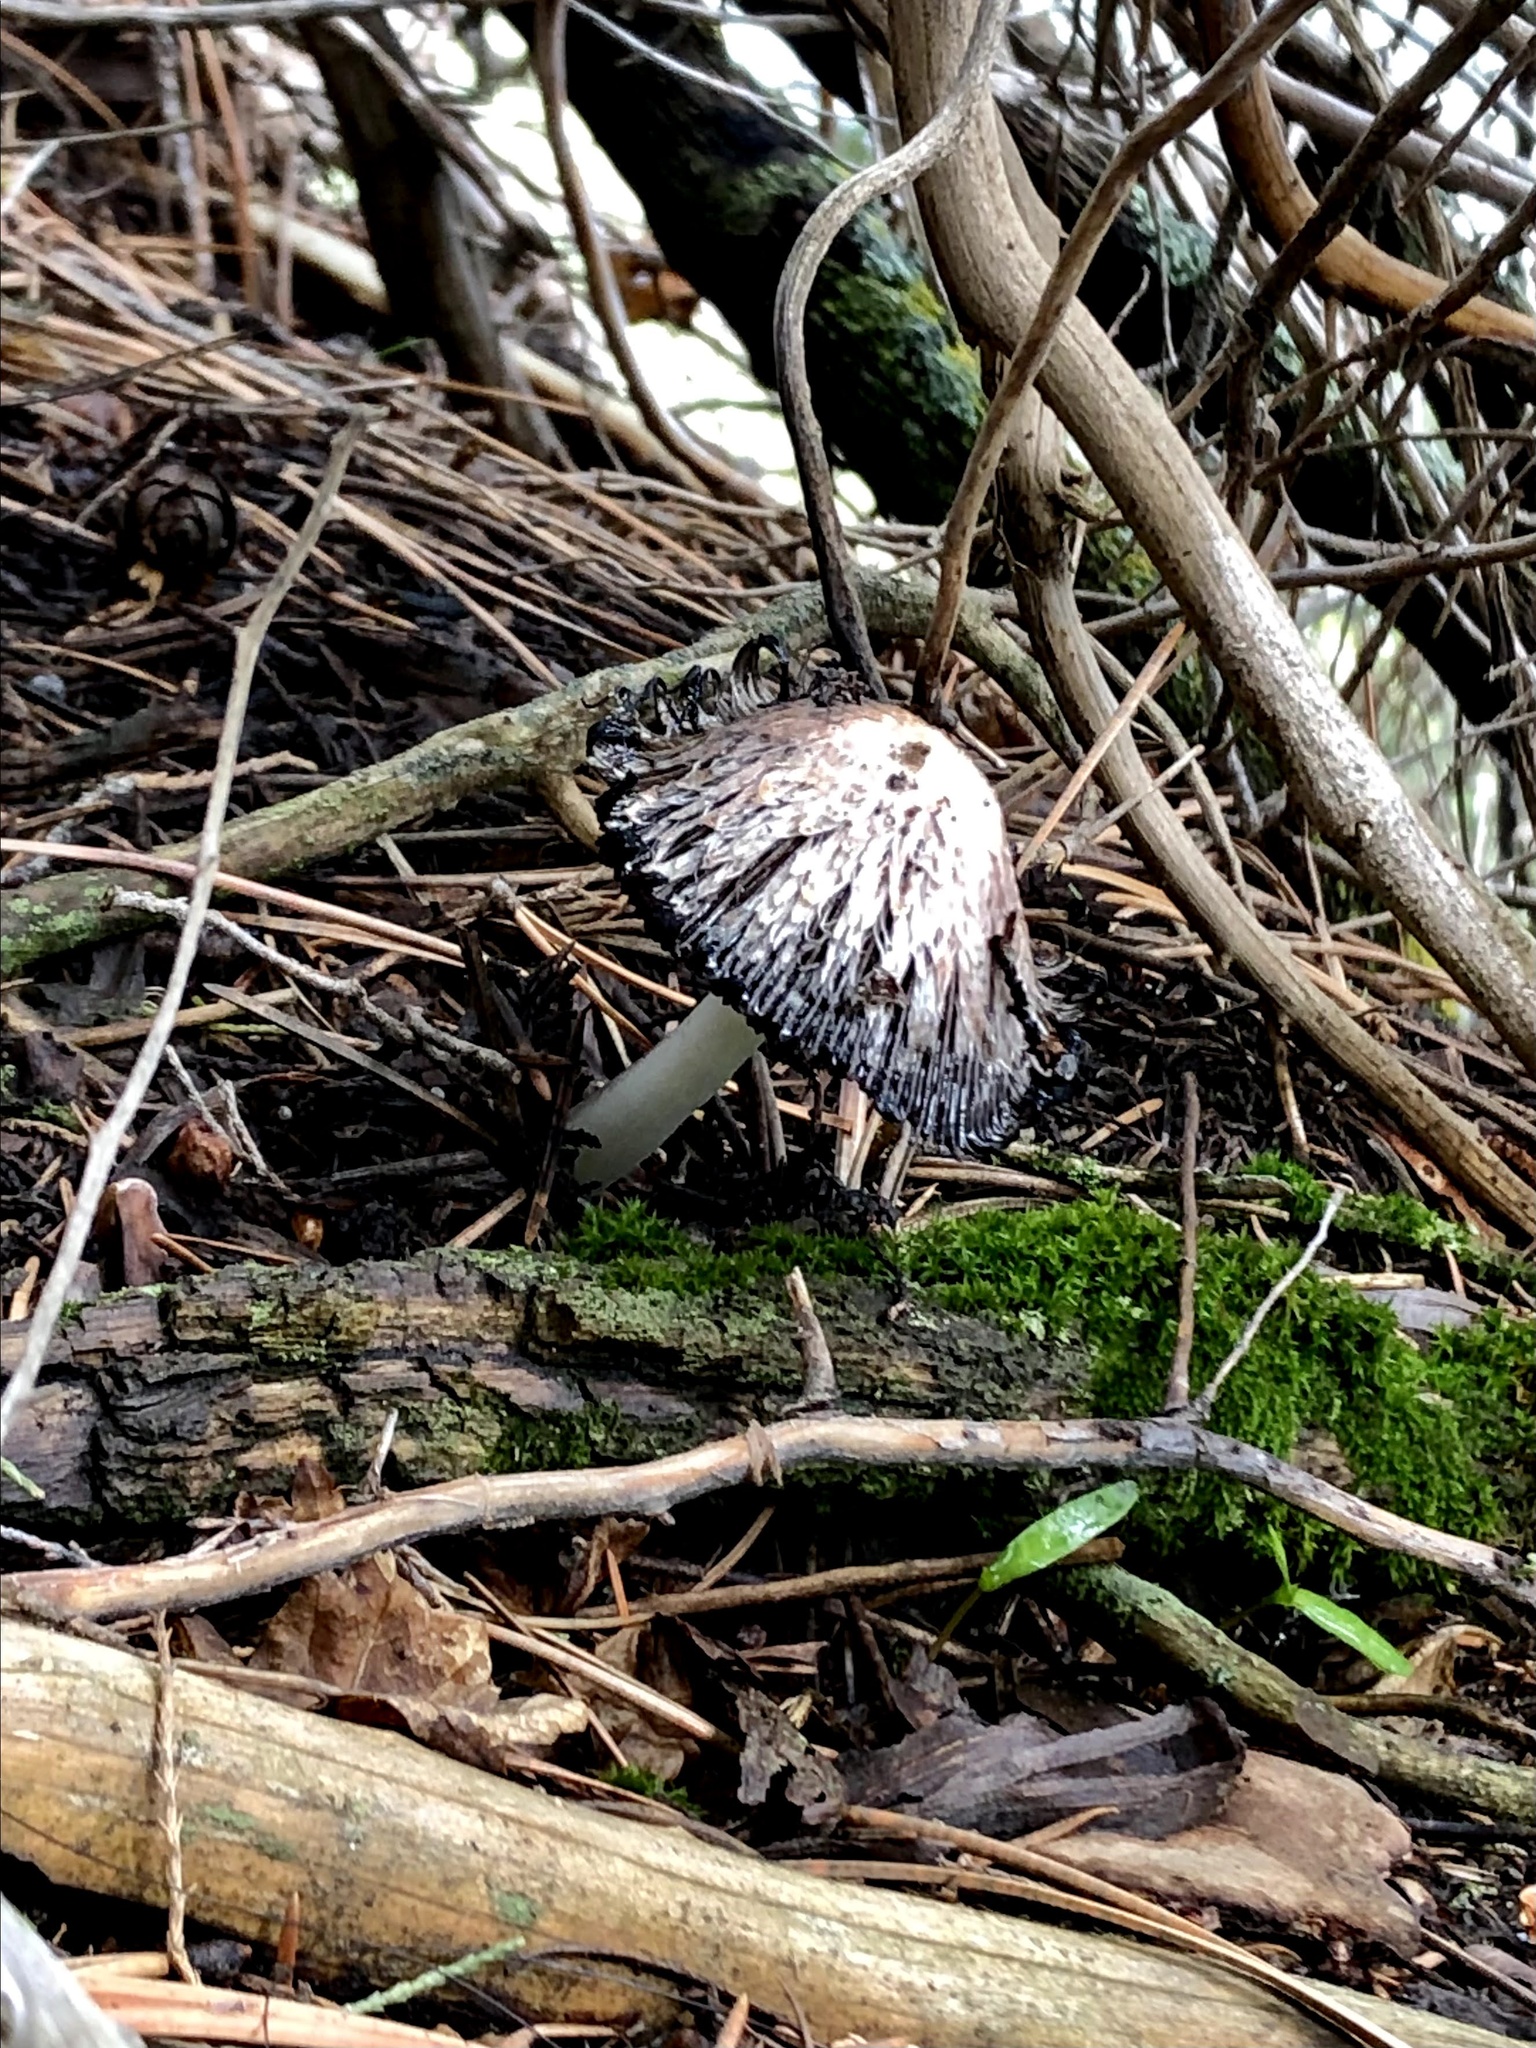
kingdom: Fungi
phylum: Basidiomycota
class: Agaricomycetes
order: Agaricales
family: Agaricaceae
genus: Coprinus
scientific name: Coprinus comatus
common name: Lawyer's wig
